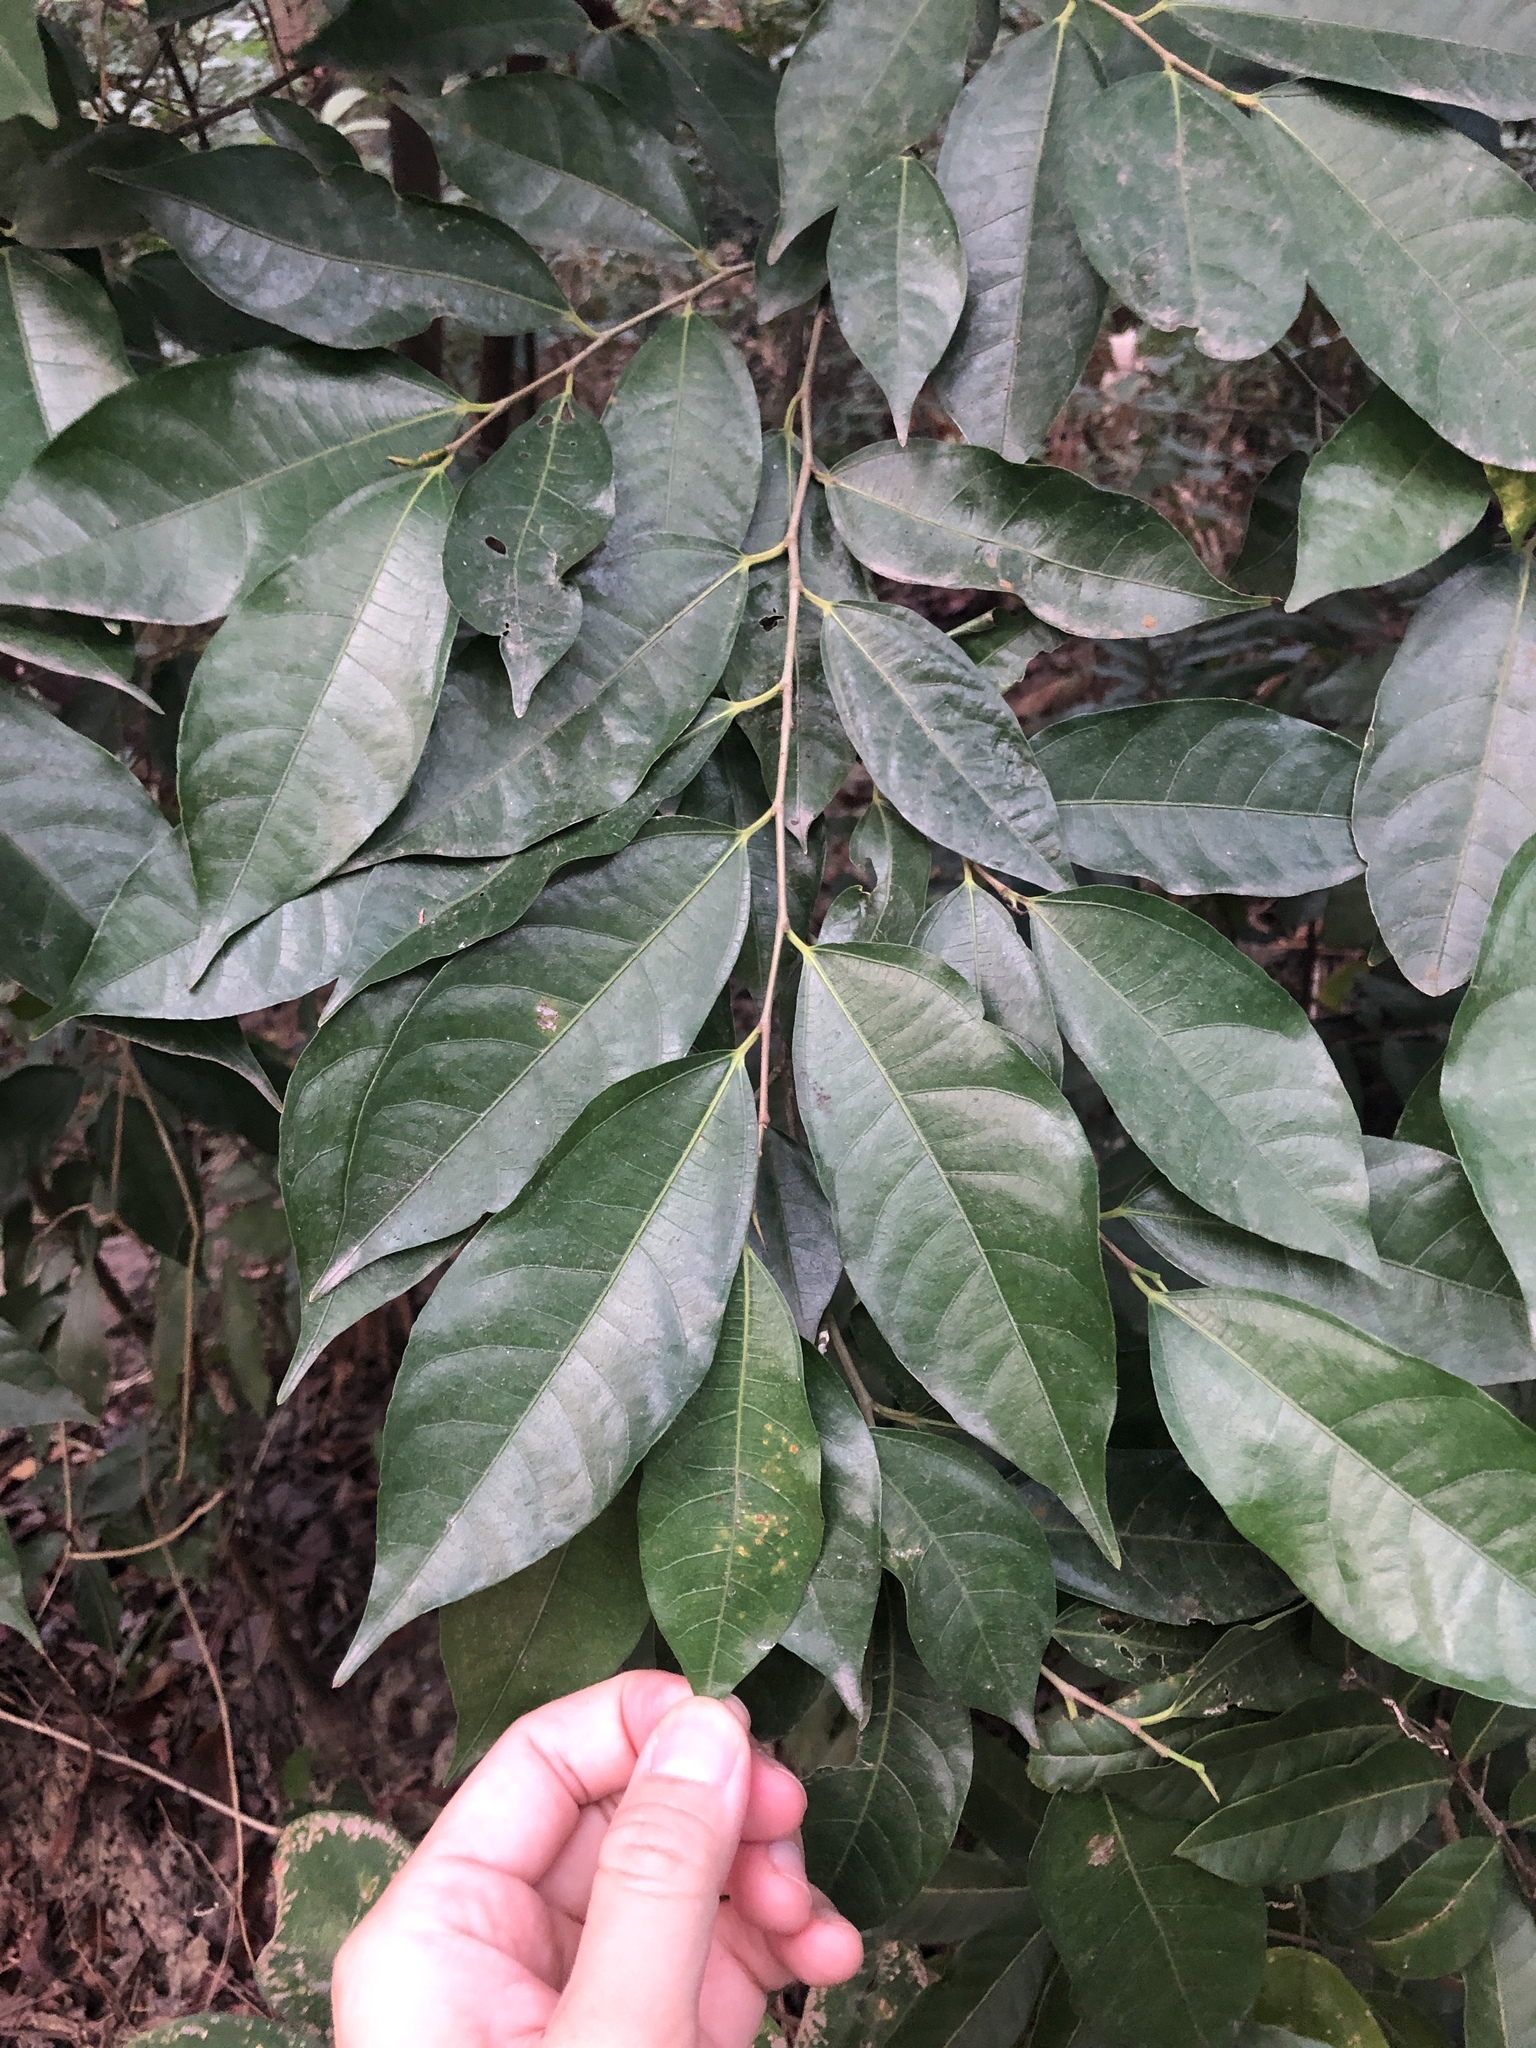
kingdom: Plantae
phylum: Tracheophyta
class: Magnoliopsida
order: Rosales
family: Moraceae
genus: Ficus
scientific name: Ficus ampelos
